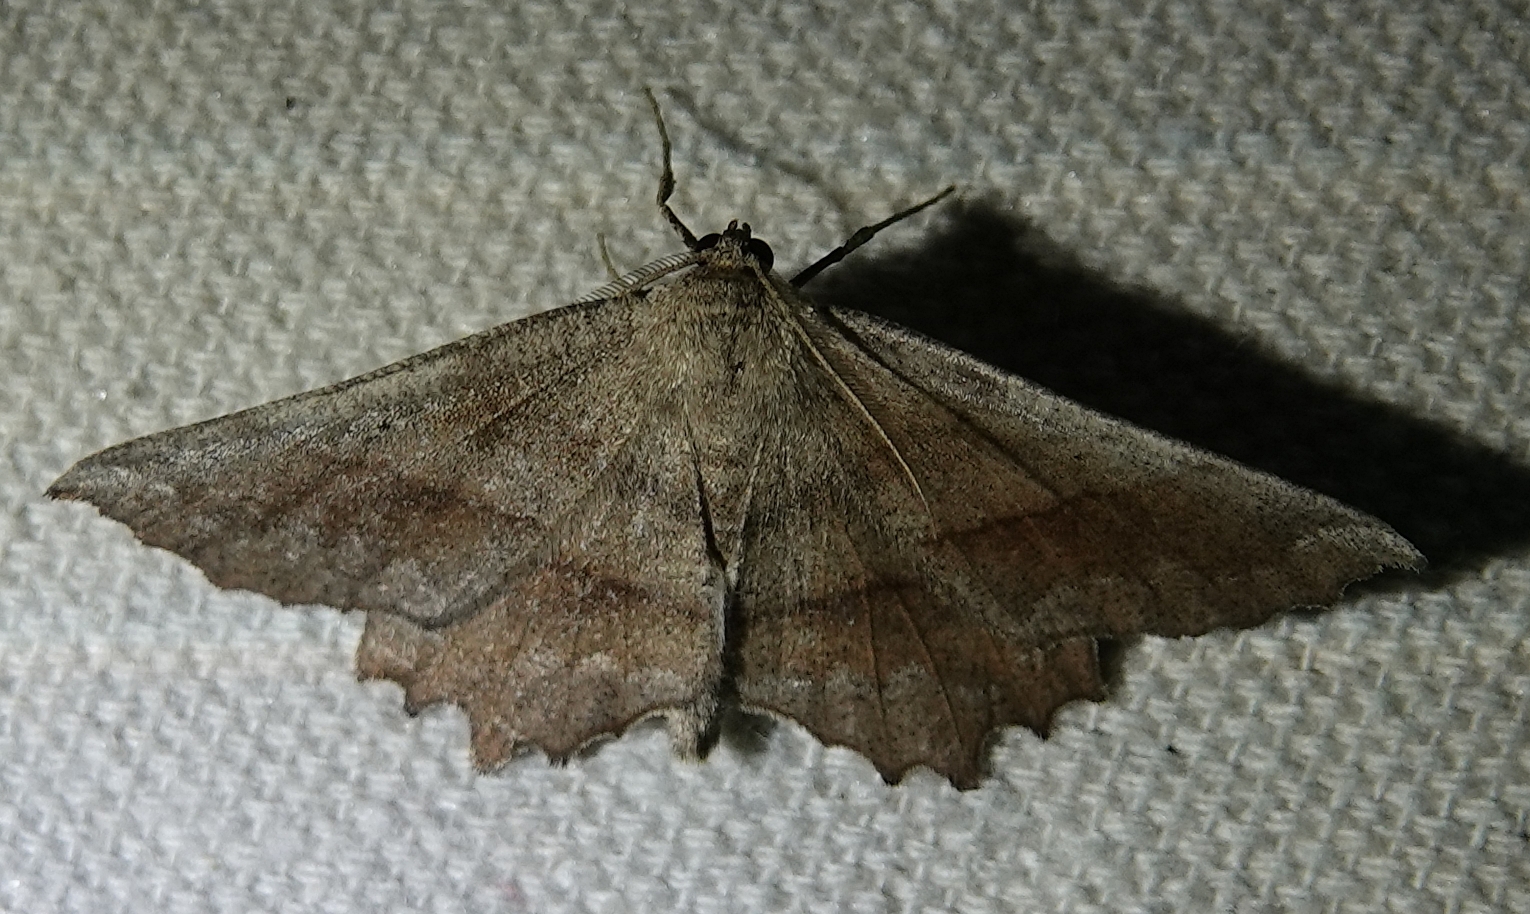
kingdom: Animalia
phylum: Arthropoda
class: Insecta
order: Lepidoptera
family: Geometridae
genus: Euchlaena
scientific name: Euchlaena effecta
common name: Effective euchlaena moth
